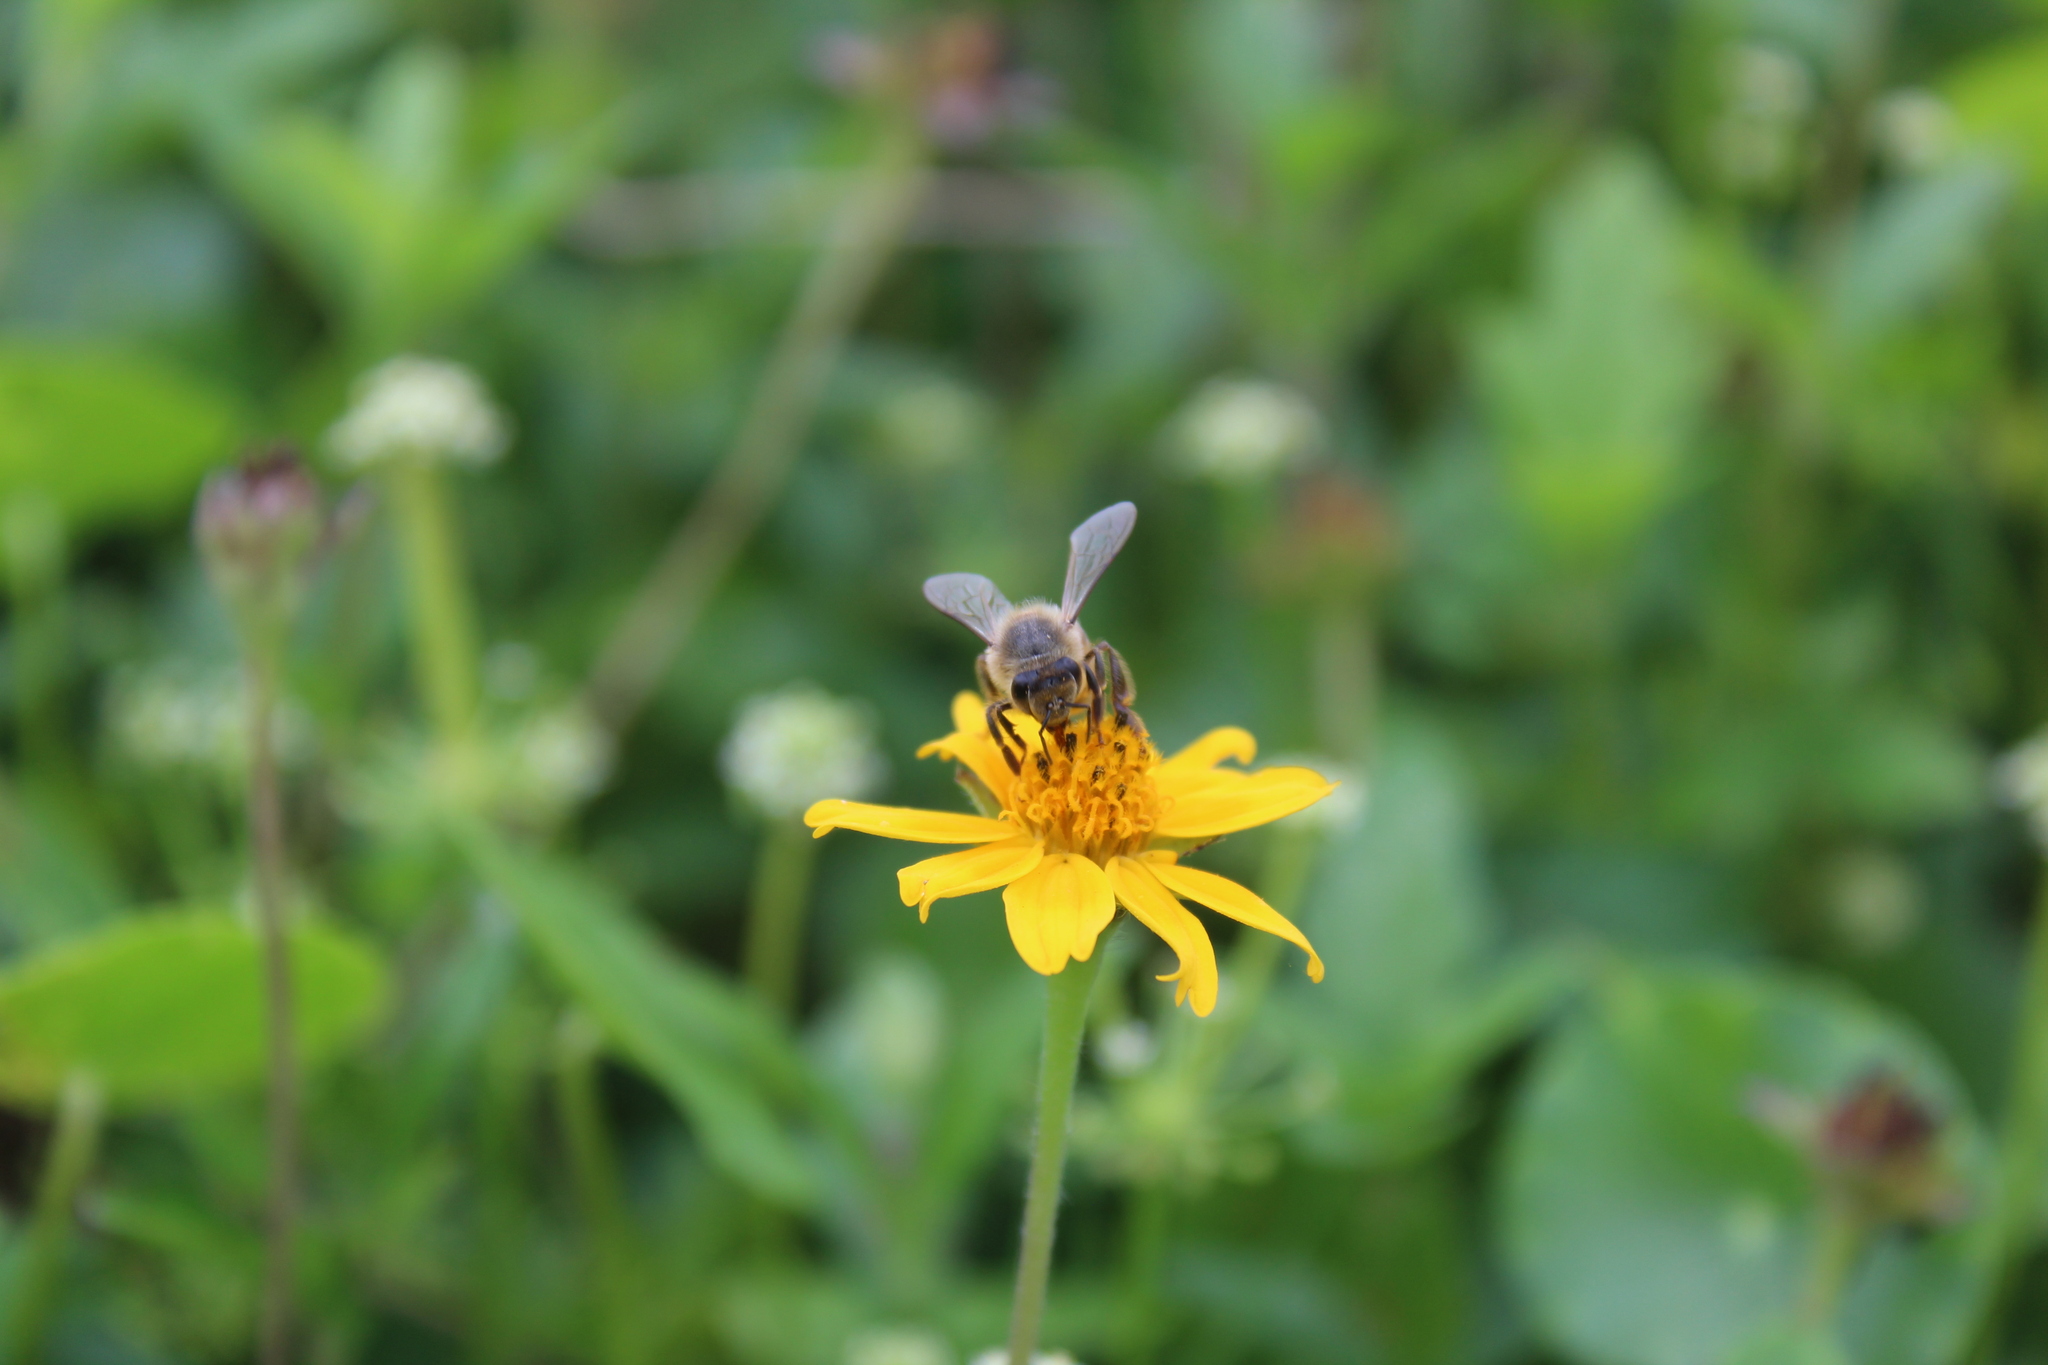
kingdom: Animalia
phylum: Arthropoda
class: Insecta
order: Hymenoptera
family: Apidae
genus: Apis
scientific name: Apis mellifera
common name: Honey bee
